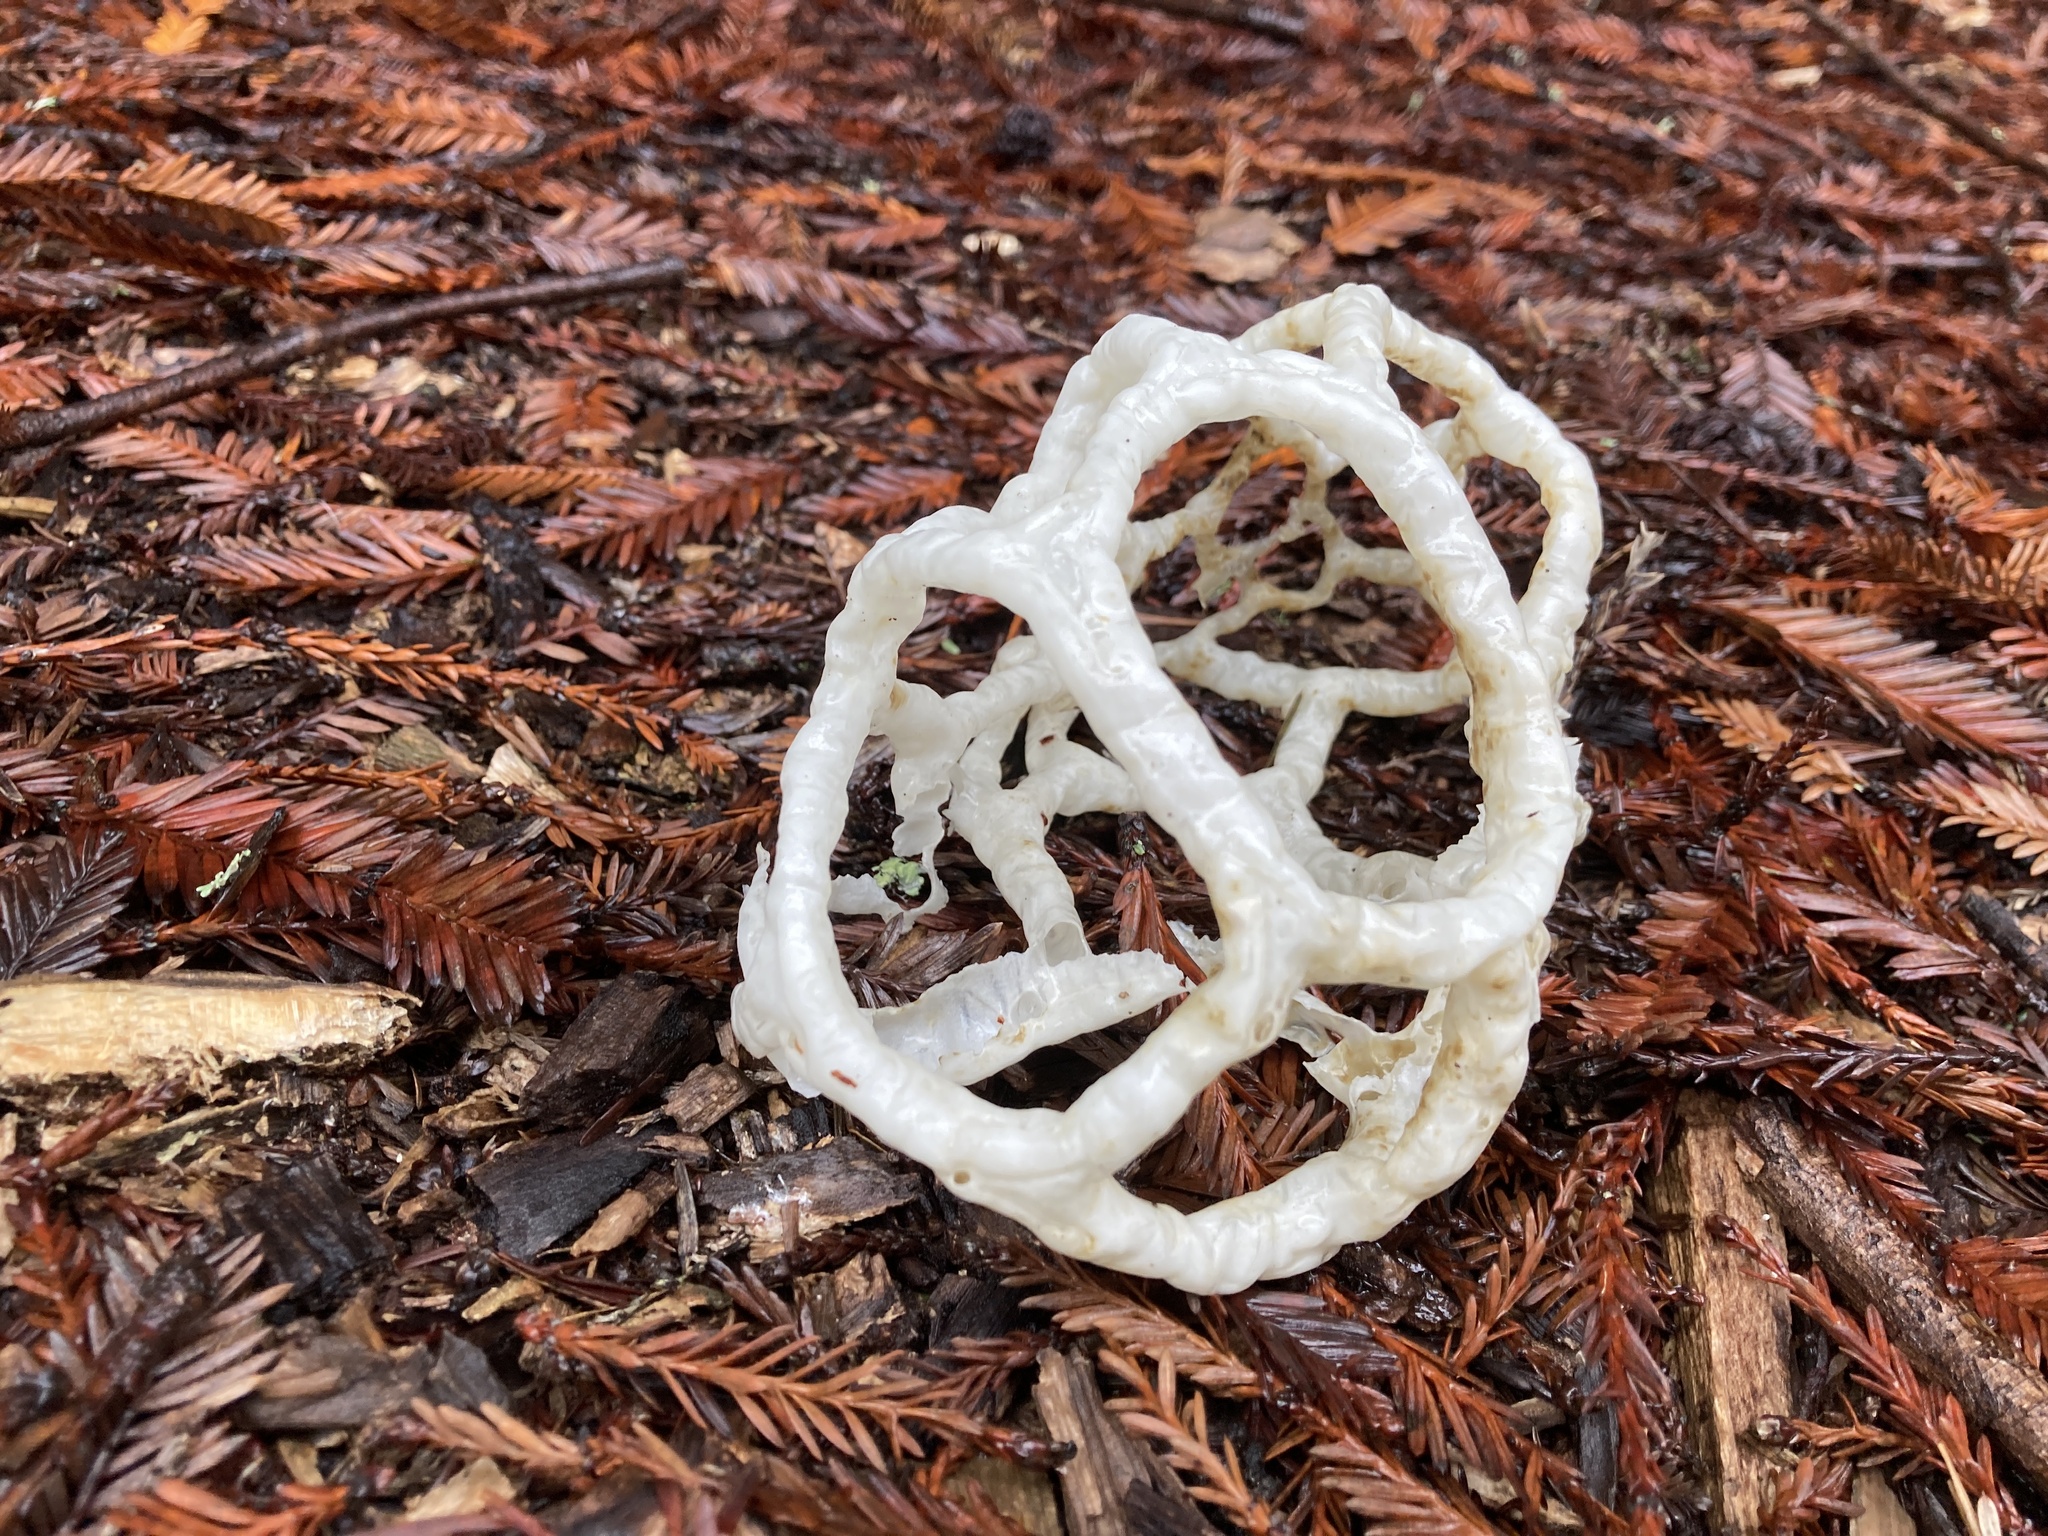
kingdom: Fungi
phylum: Basidiomycota
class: Agaricomycetes
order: Phallales
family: Phallaceae
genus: Ileodictyon
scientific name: Ileodictyon cibarium
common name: Basket fungus
